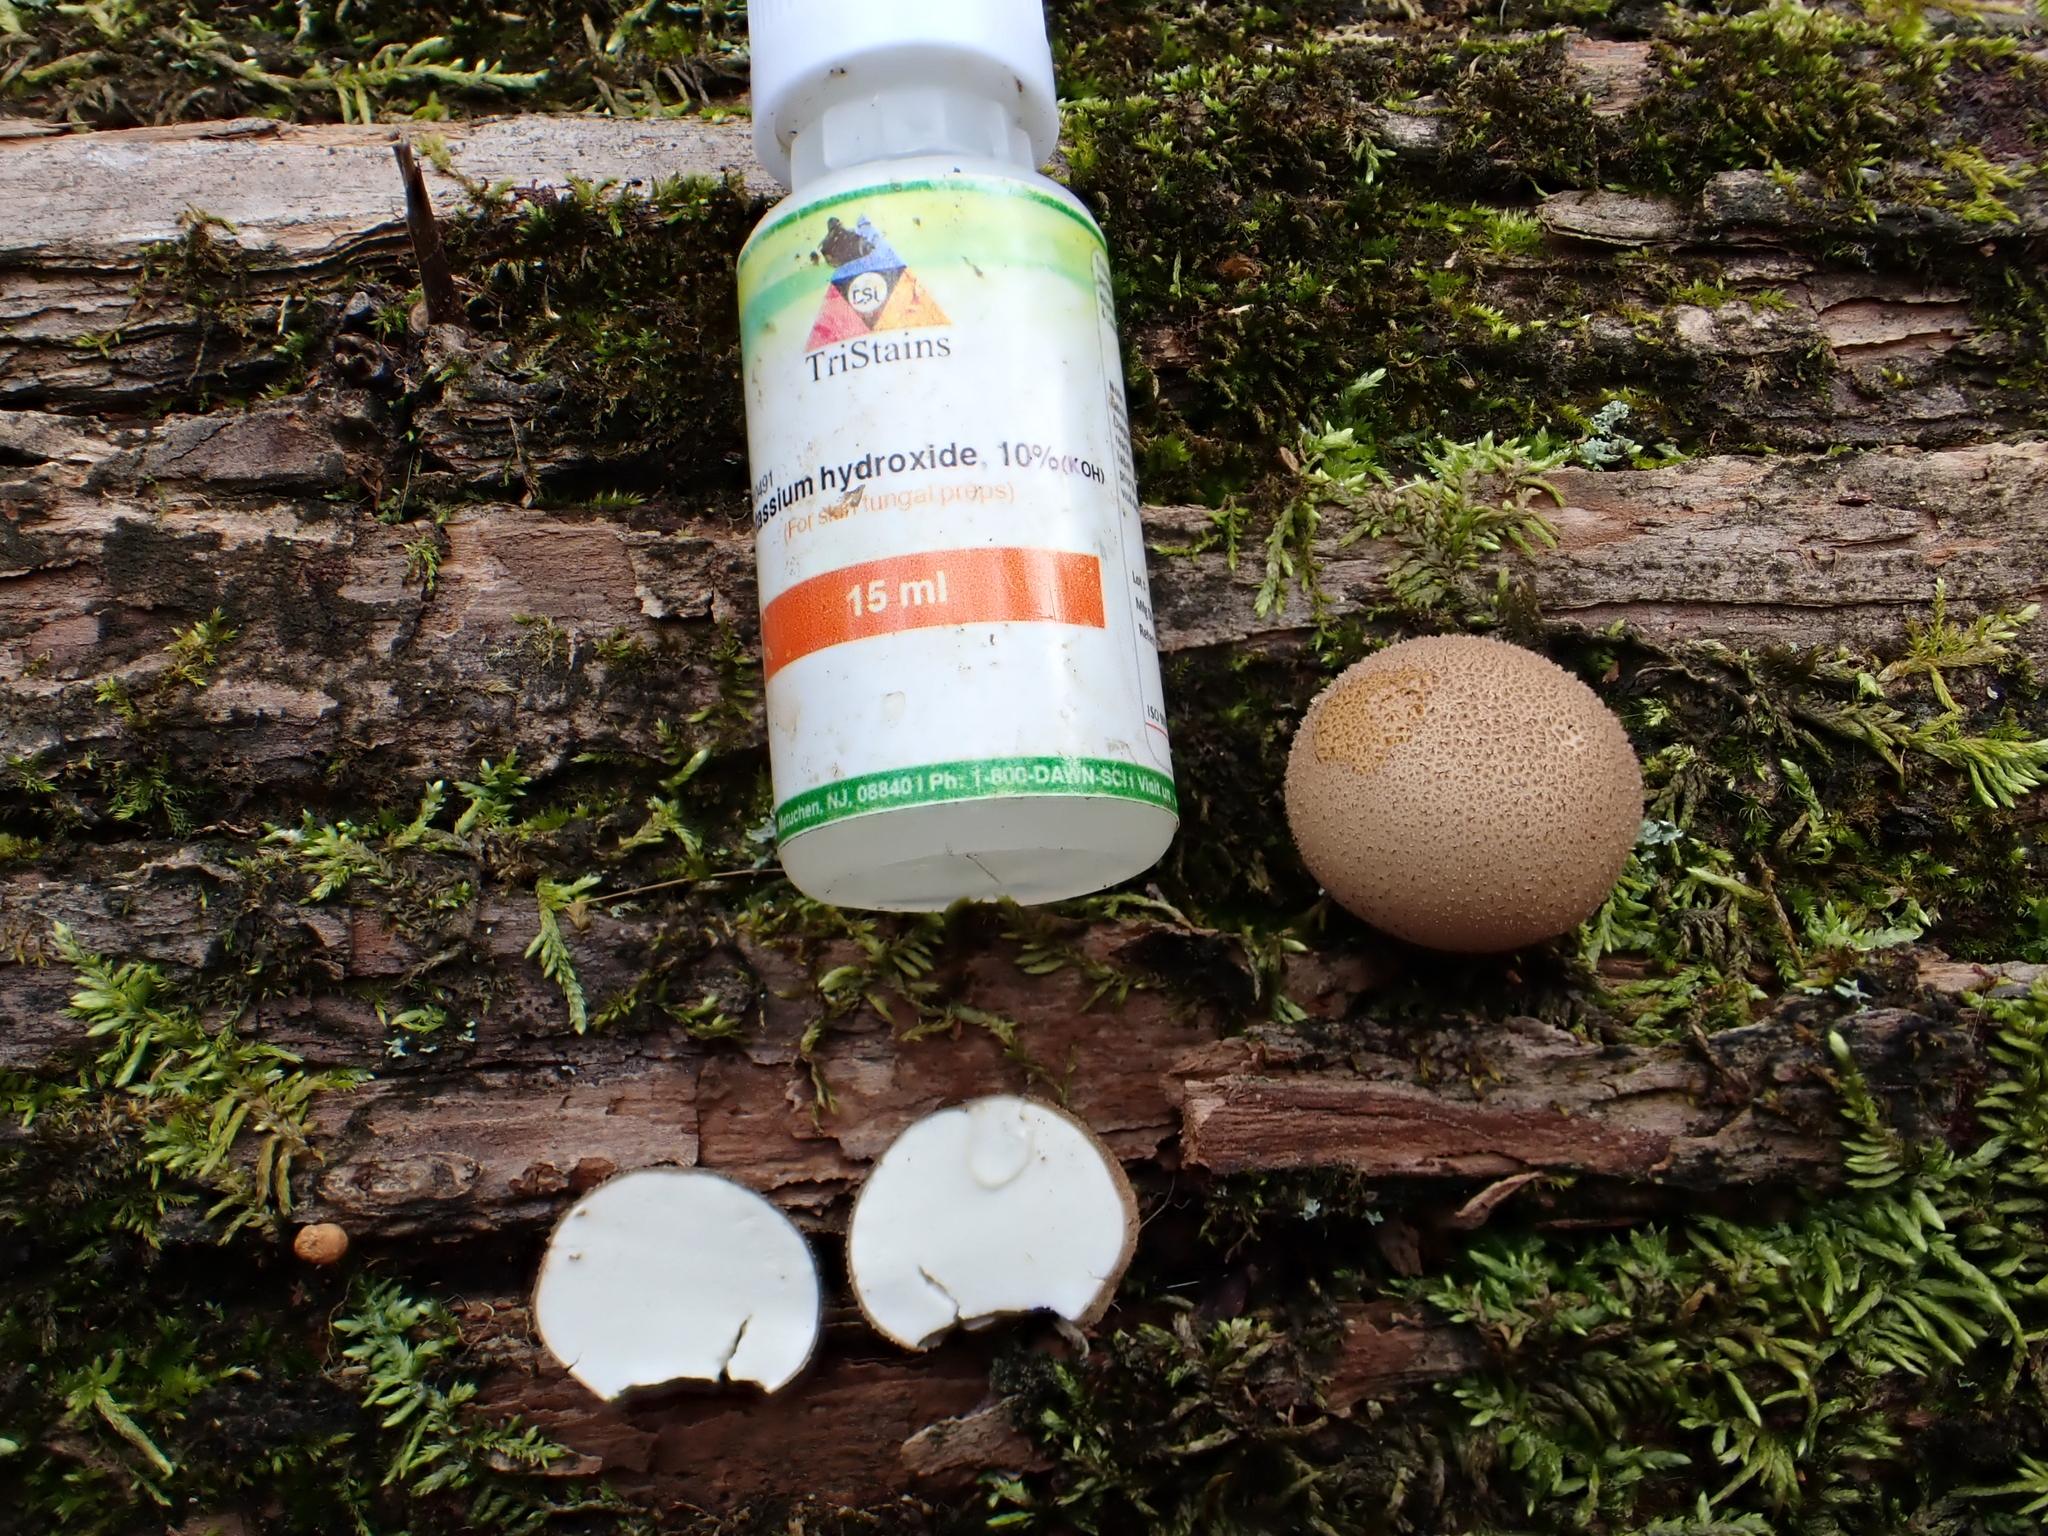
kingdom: Fungi
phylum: Basidiomycota
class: Agaricomycetes
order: Agaricales
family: Lycoperdaceae
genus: Apioperdon
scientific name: Apioperdon pyriforme
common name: Pear-shaped puffball
